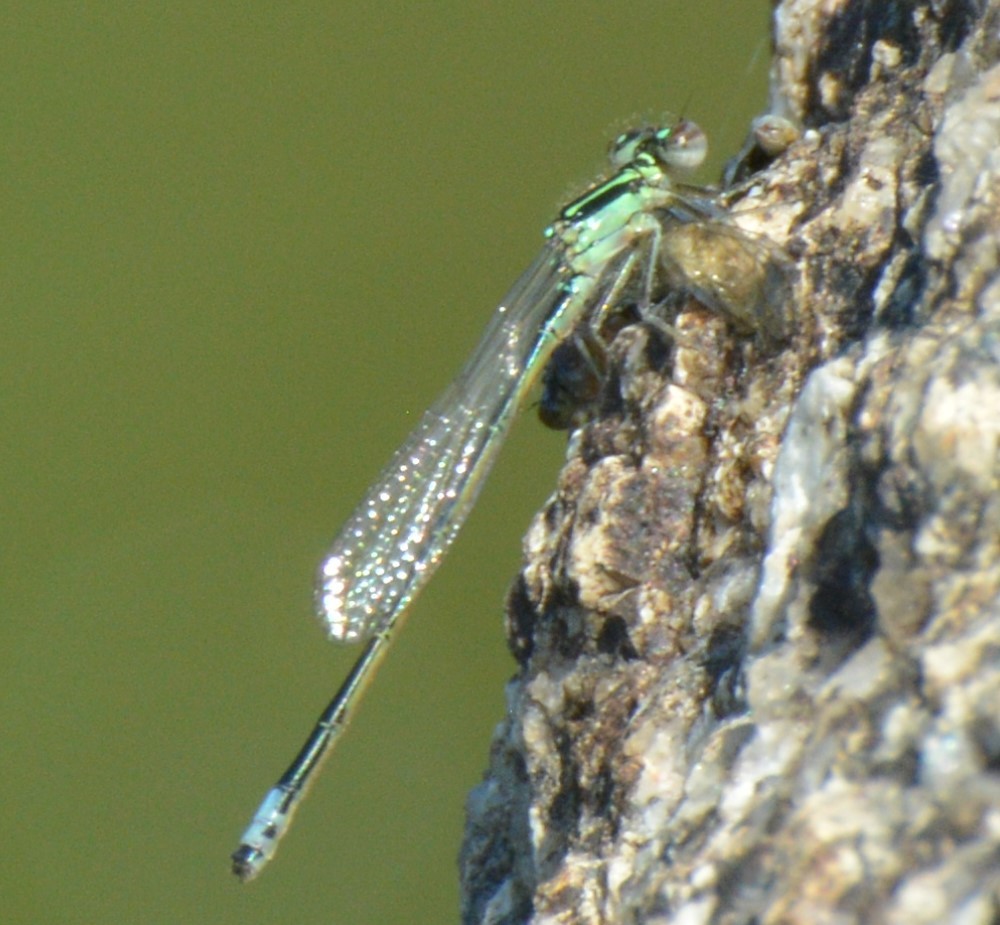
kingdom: Animalia
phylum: Arthropoda
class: Insecta
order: Odonata
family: Coenagrionidae
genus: Ischnura
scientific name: Ischnura verticalis
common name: Eastern forktail
